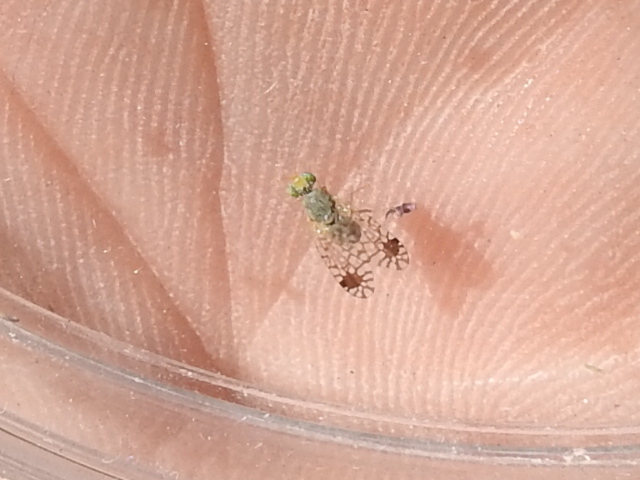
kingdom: Animalia
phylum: Arthropoda
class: Insecta
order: Diptera
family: Tephritidae
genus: Euarestoides
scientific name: Euarestoides acutangulus
